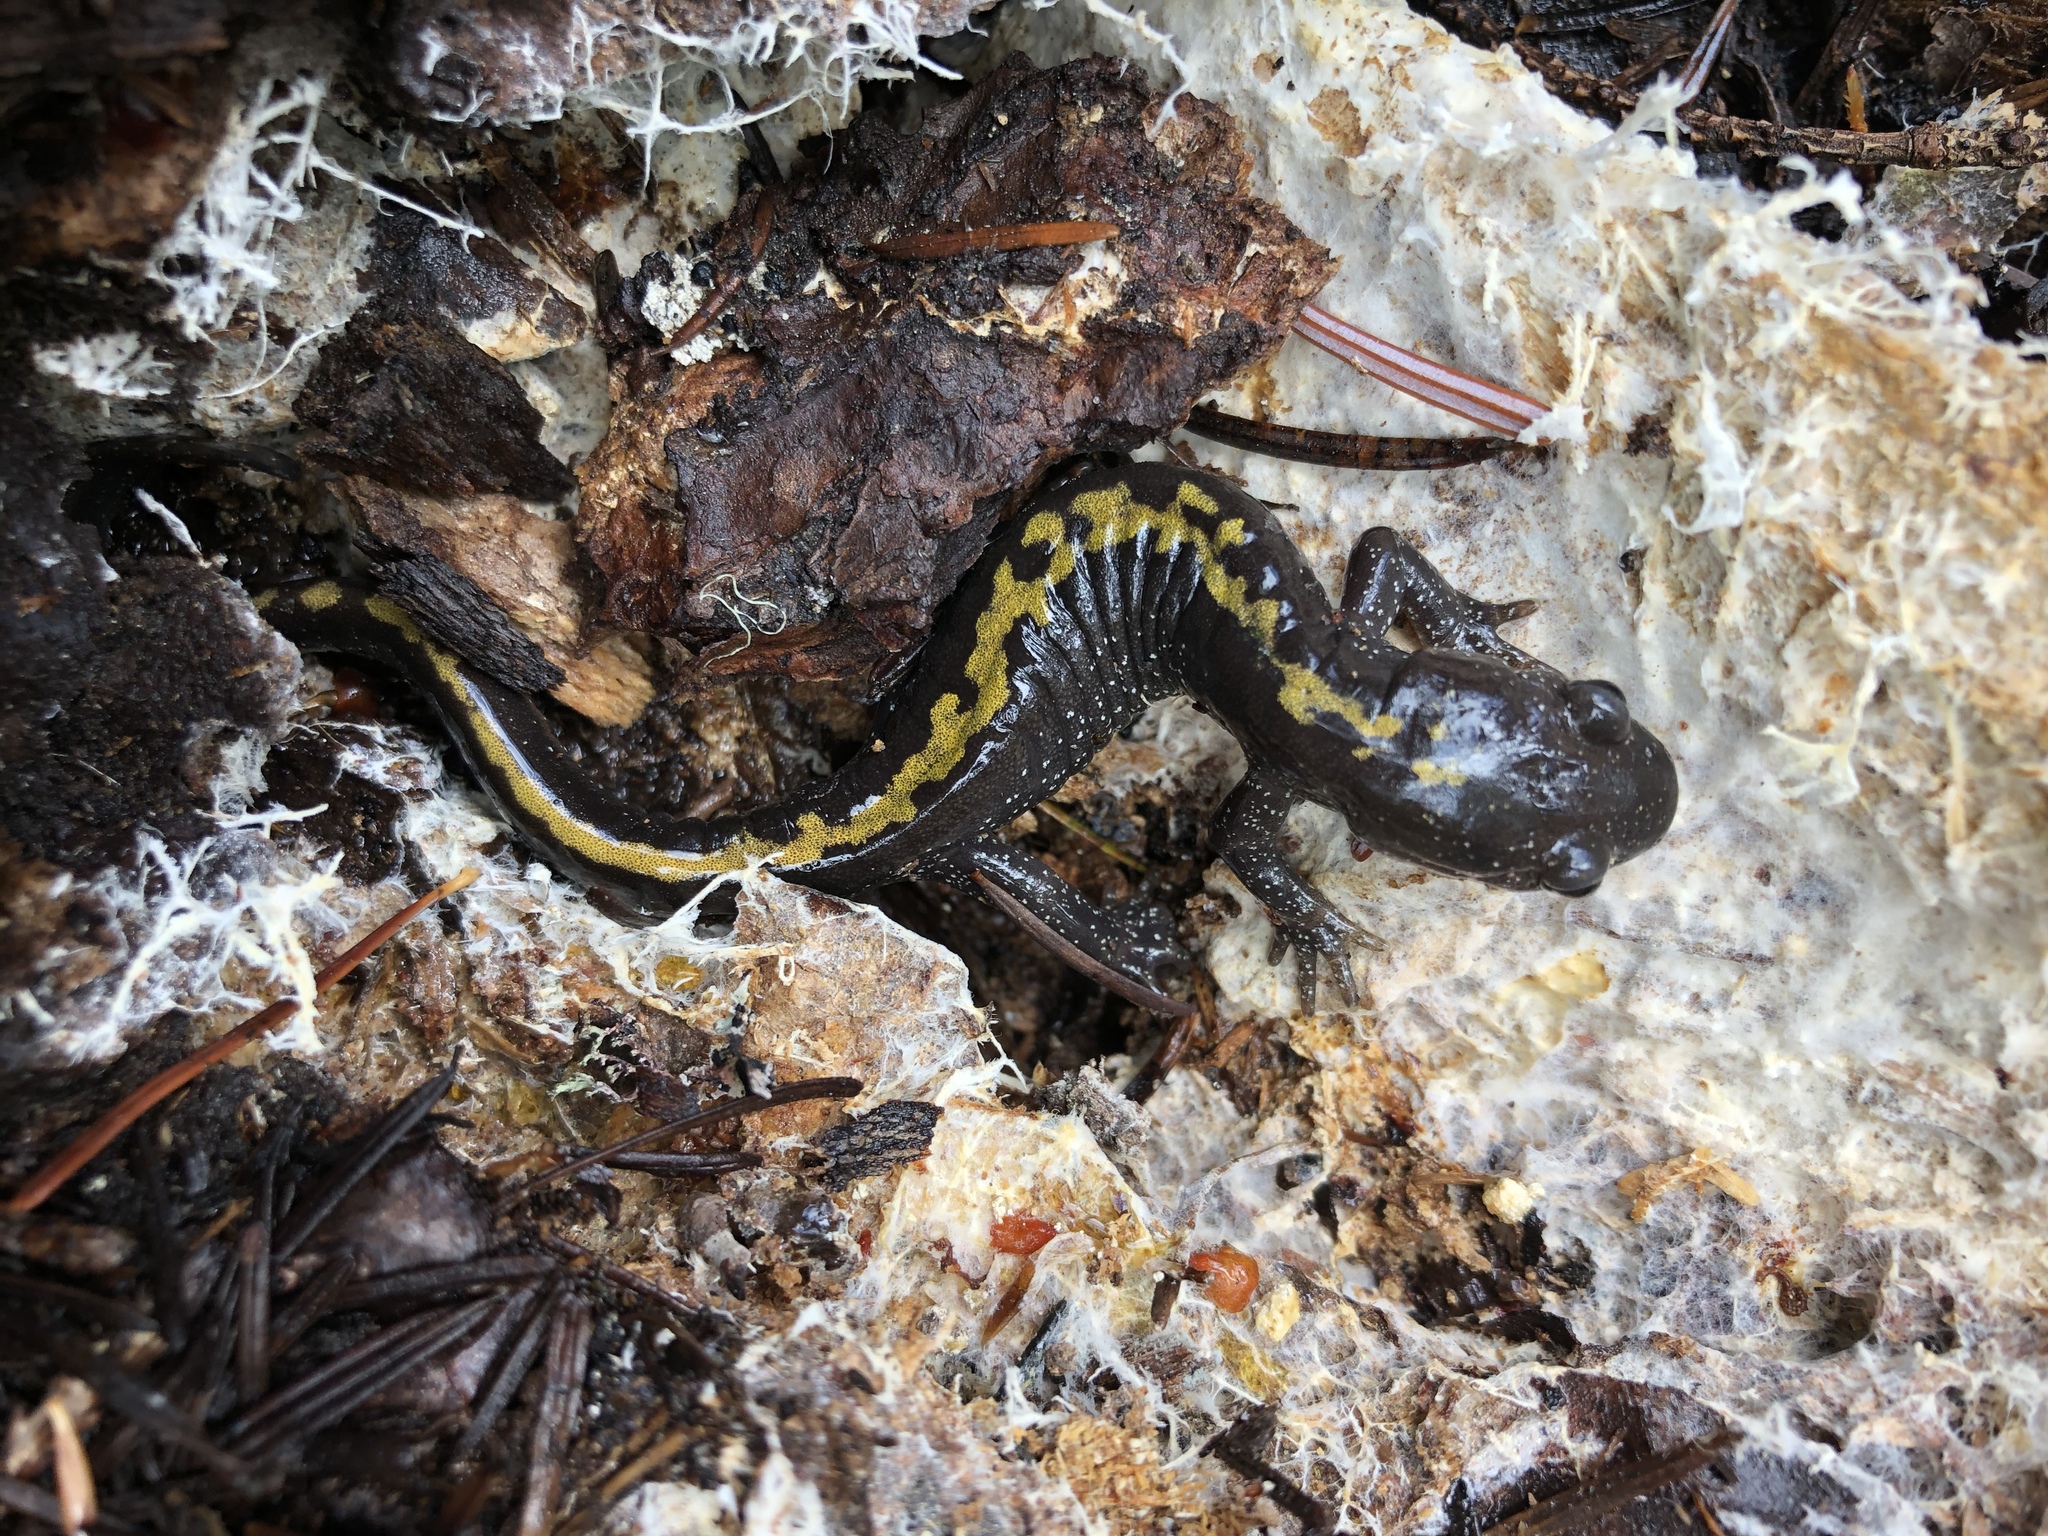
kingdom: Animalia
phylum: Chordata
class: Amphibia
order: Caudata
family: Ambystomatidae
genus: Ambystoma
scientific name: Ambystoma macrodactylum
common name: Long-toed salamander
